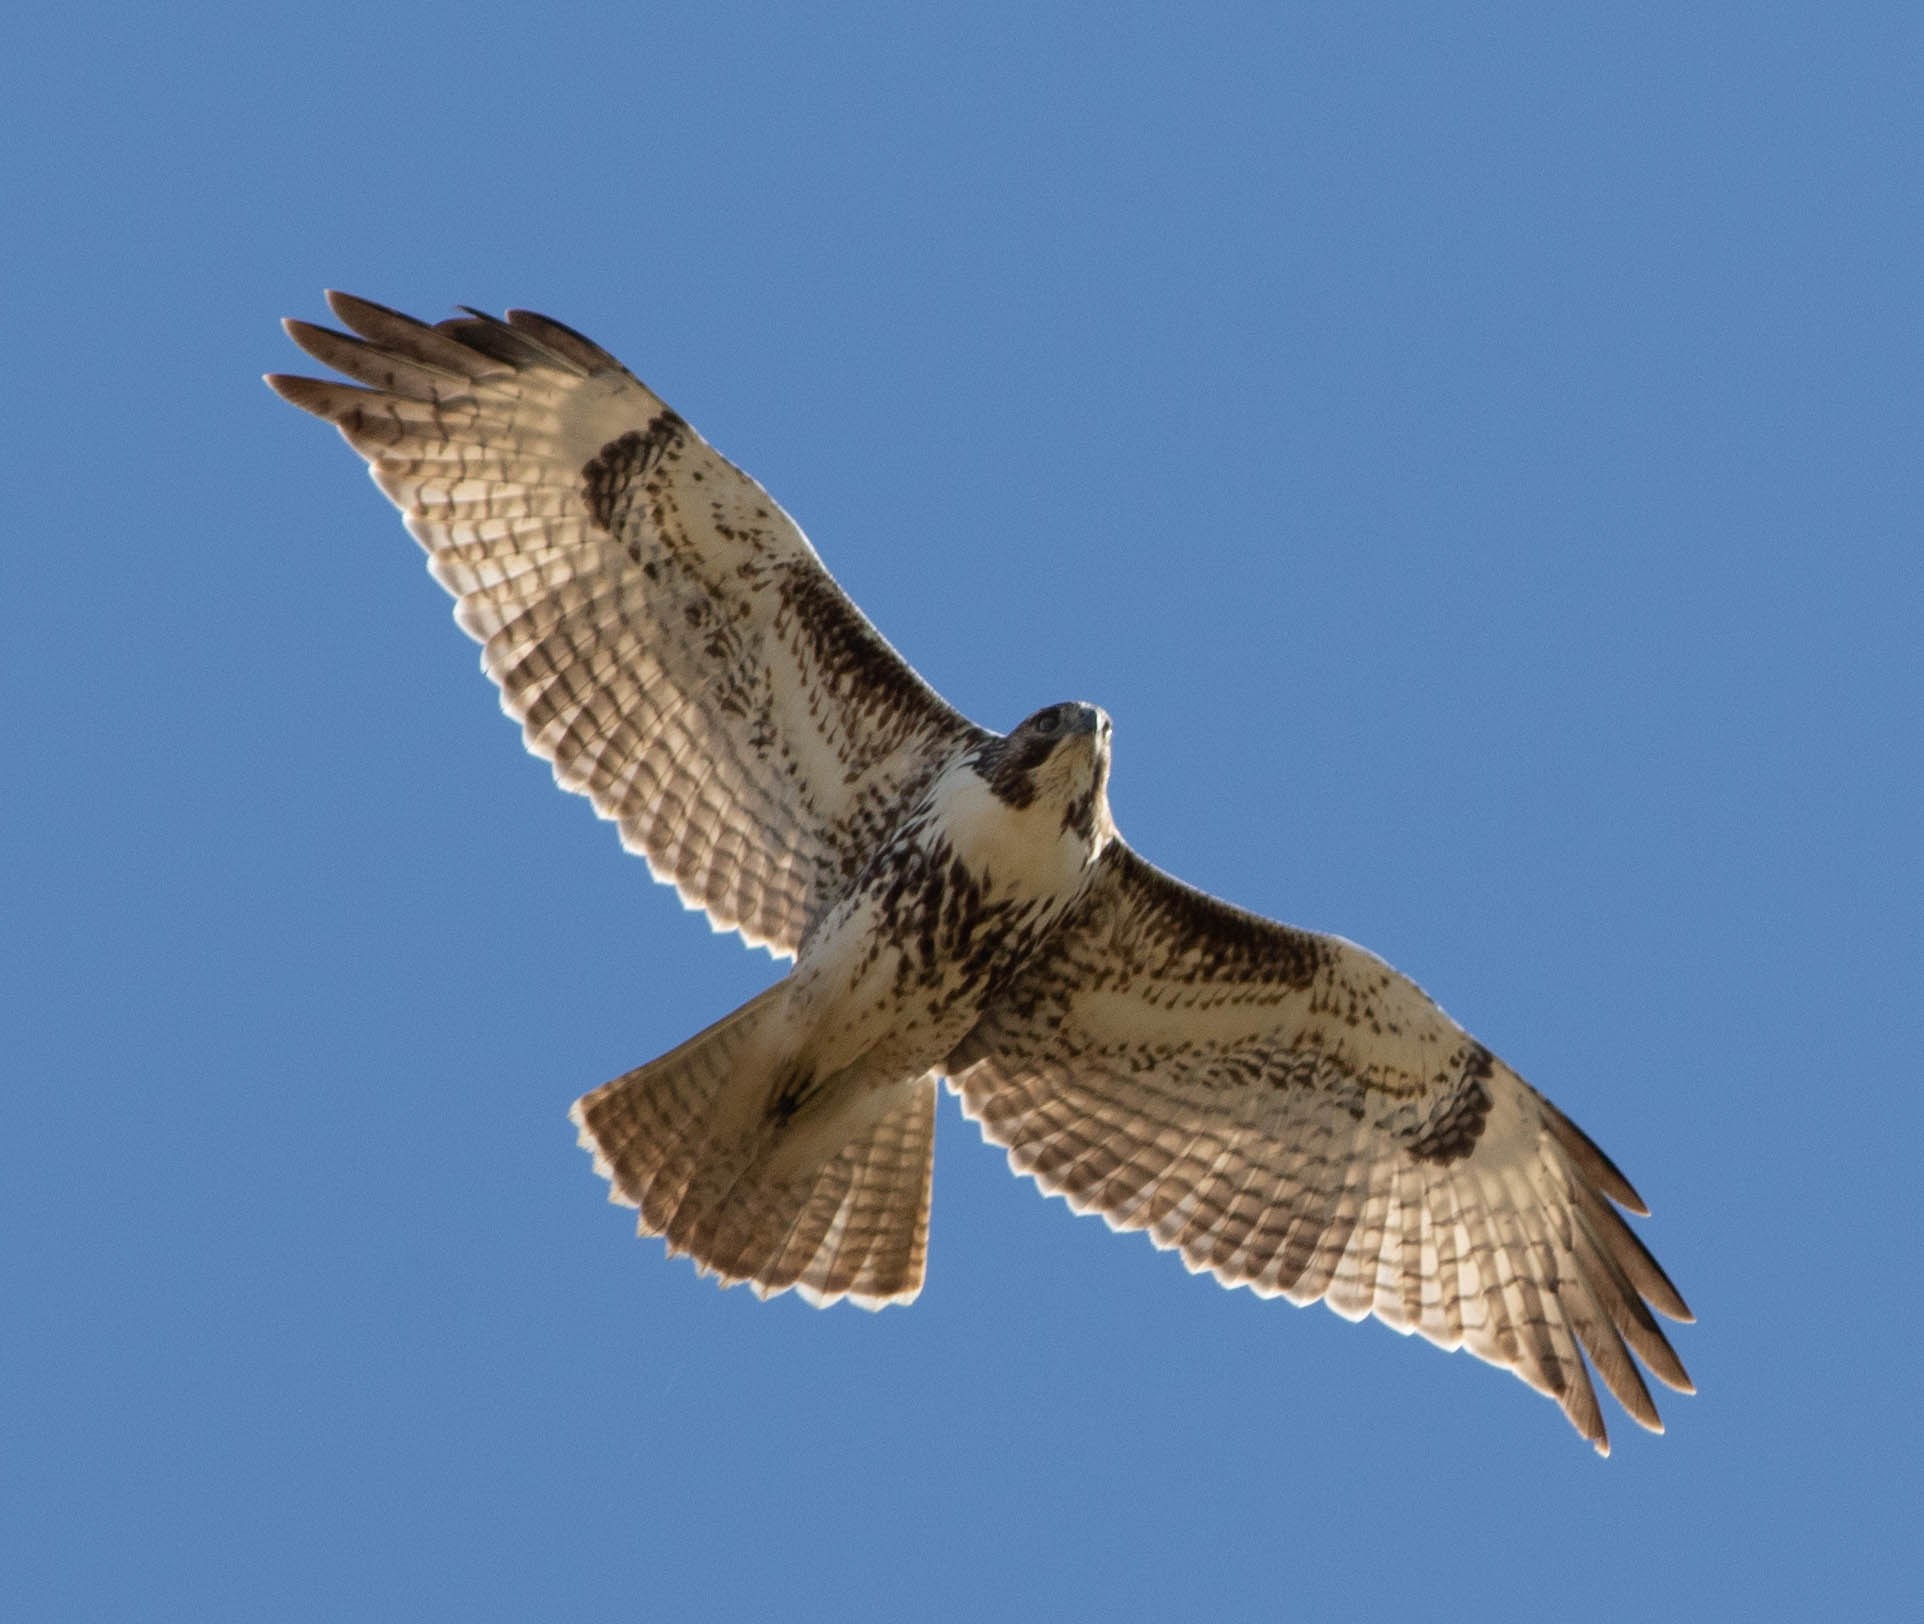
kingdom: Animalia
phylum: Chordata
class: Aves
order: Accipitriformes
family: Accipitridae
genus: Buteo
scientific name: Buteo jamaicensis
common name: Red-tailed hawk
